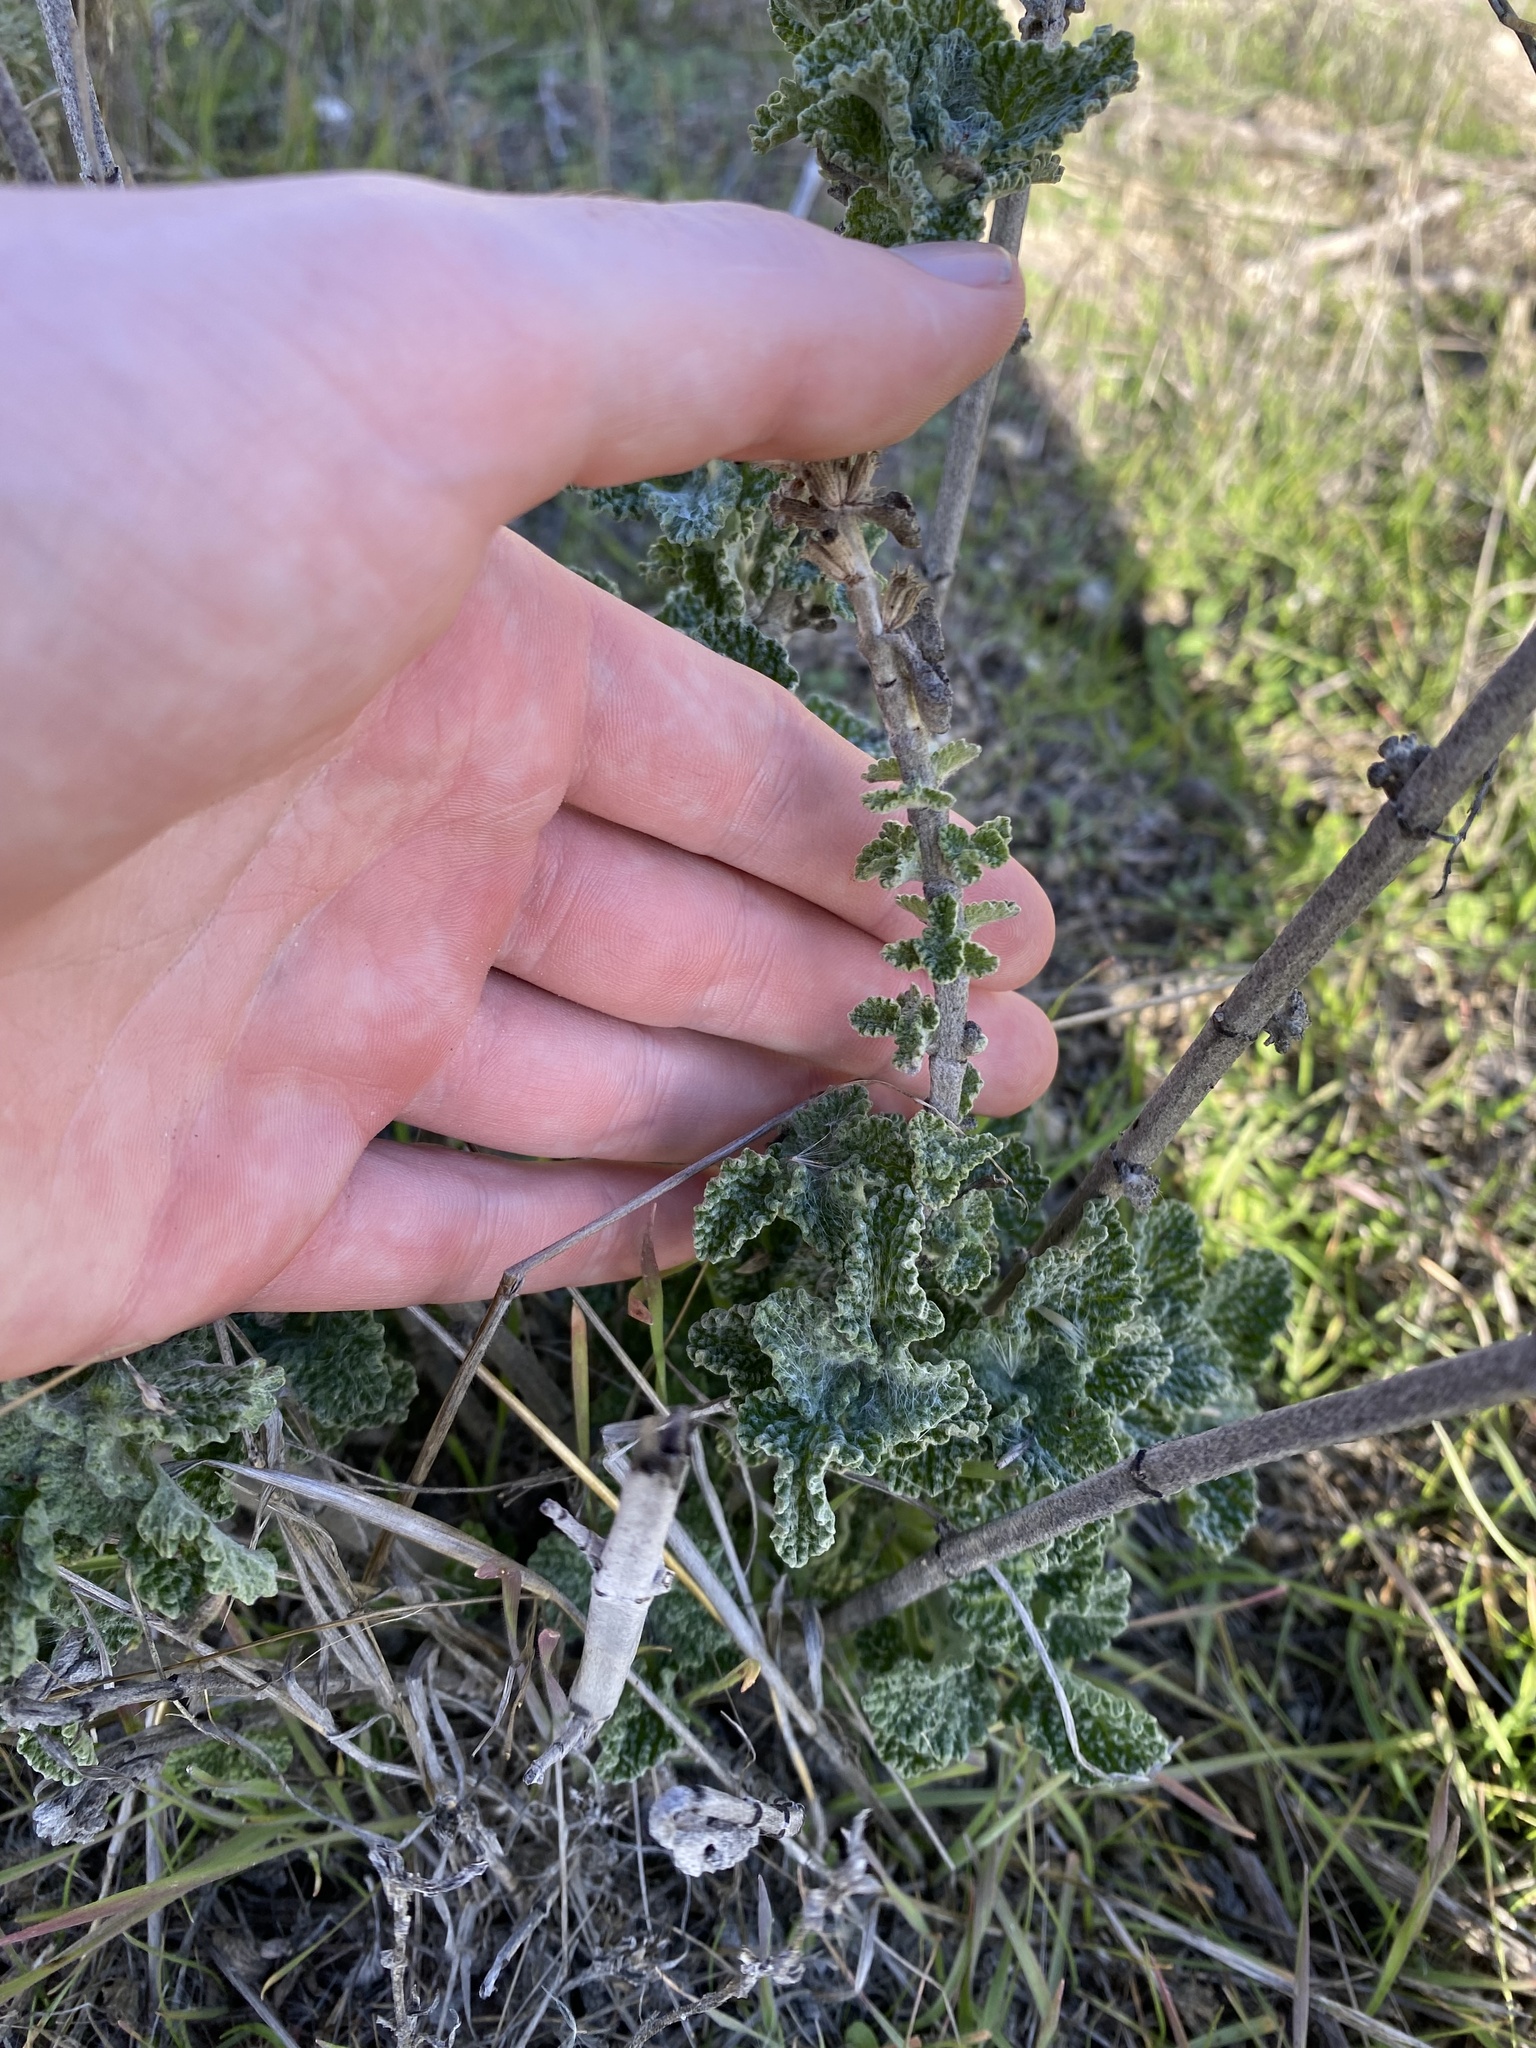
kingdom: Plantae
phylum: Tracheophyta
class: Magnoliopsida
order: Lamiales
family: Lamiaceae
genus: Marrubium
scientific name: Marrubium vulgare
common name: Horehound
